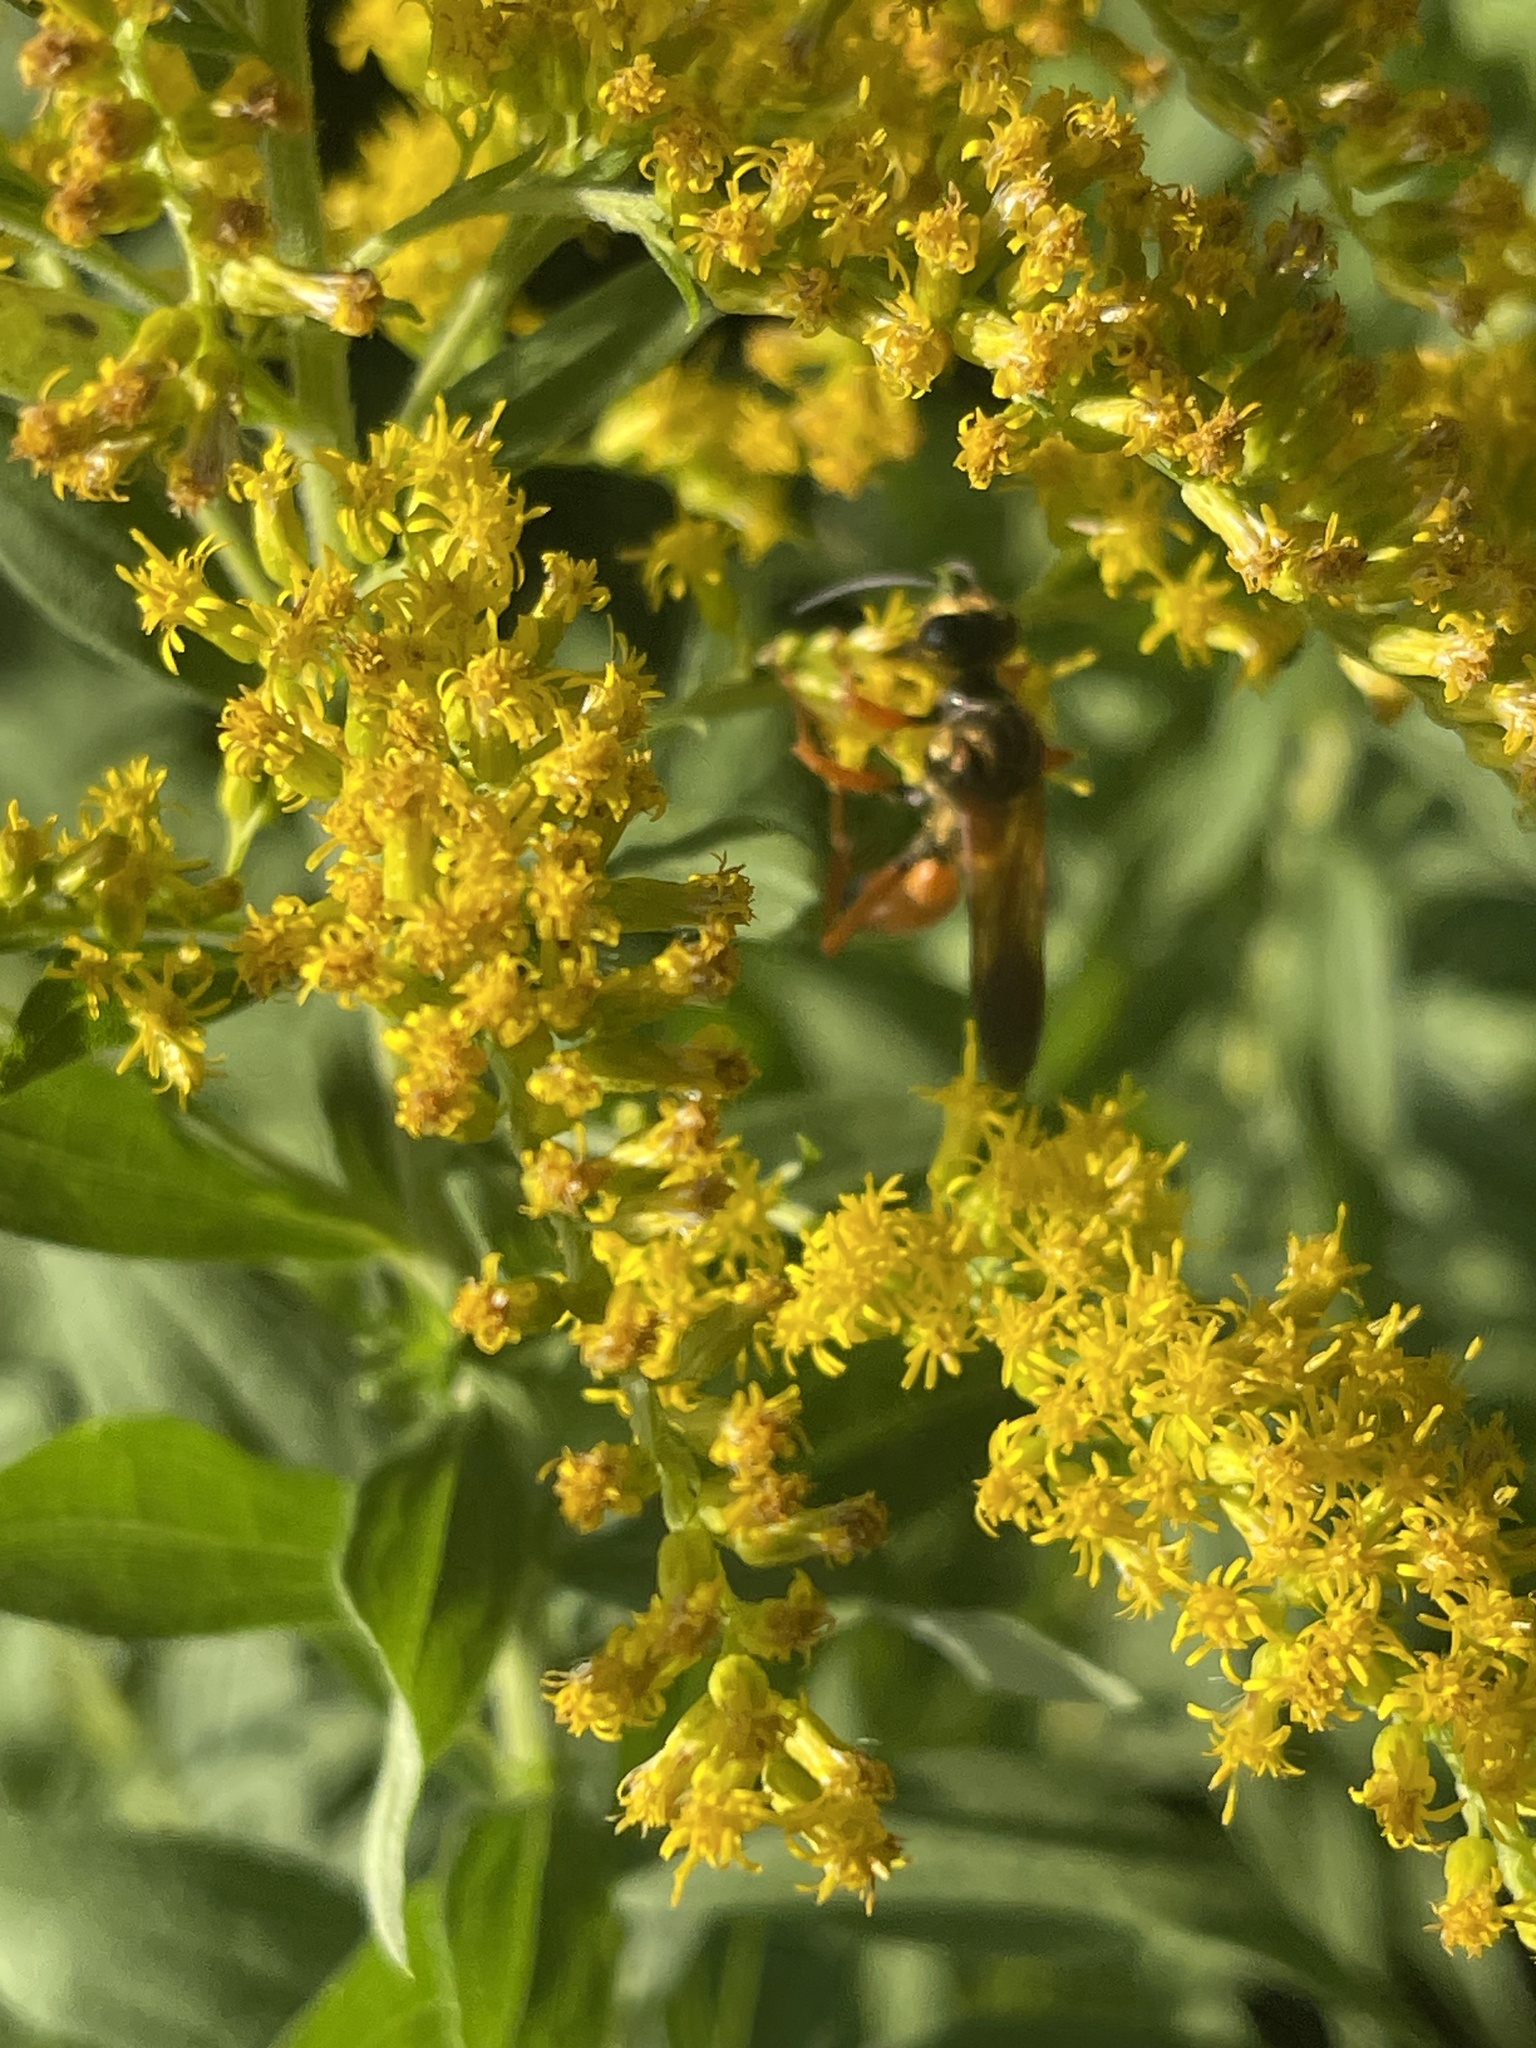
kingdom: Animalia
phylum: Arthropoda
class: Insecta
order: Hymenoptera
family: Sphecidae
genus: Sphex
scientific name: Sphex ichneumoneus
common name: Great golden digger wasp
